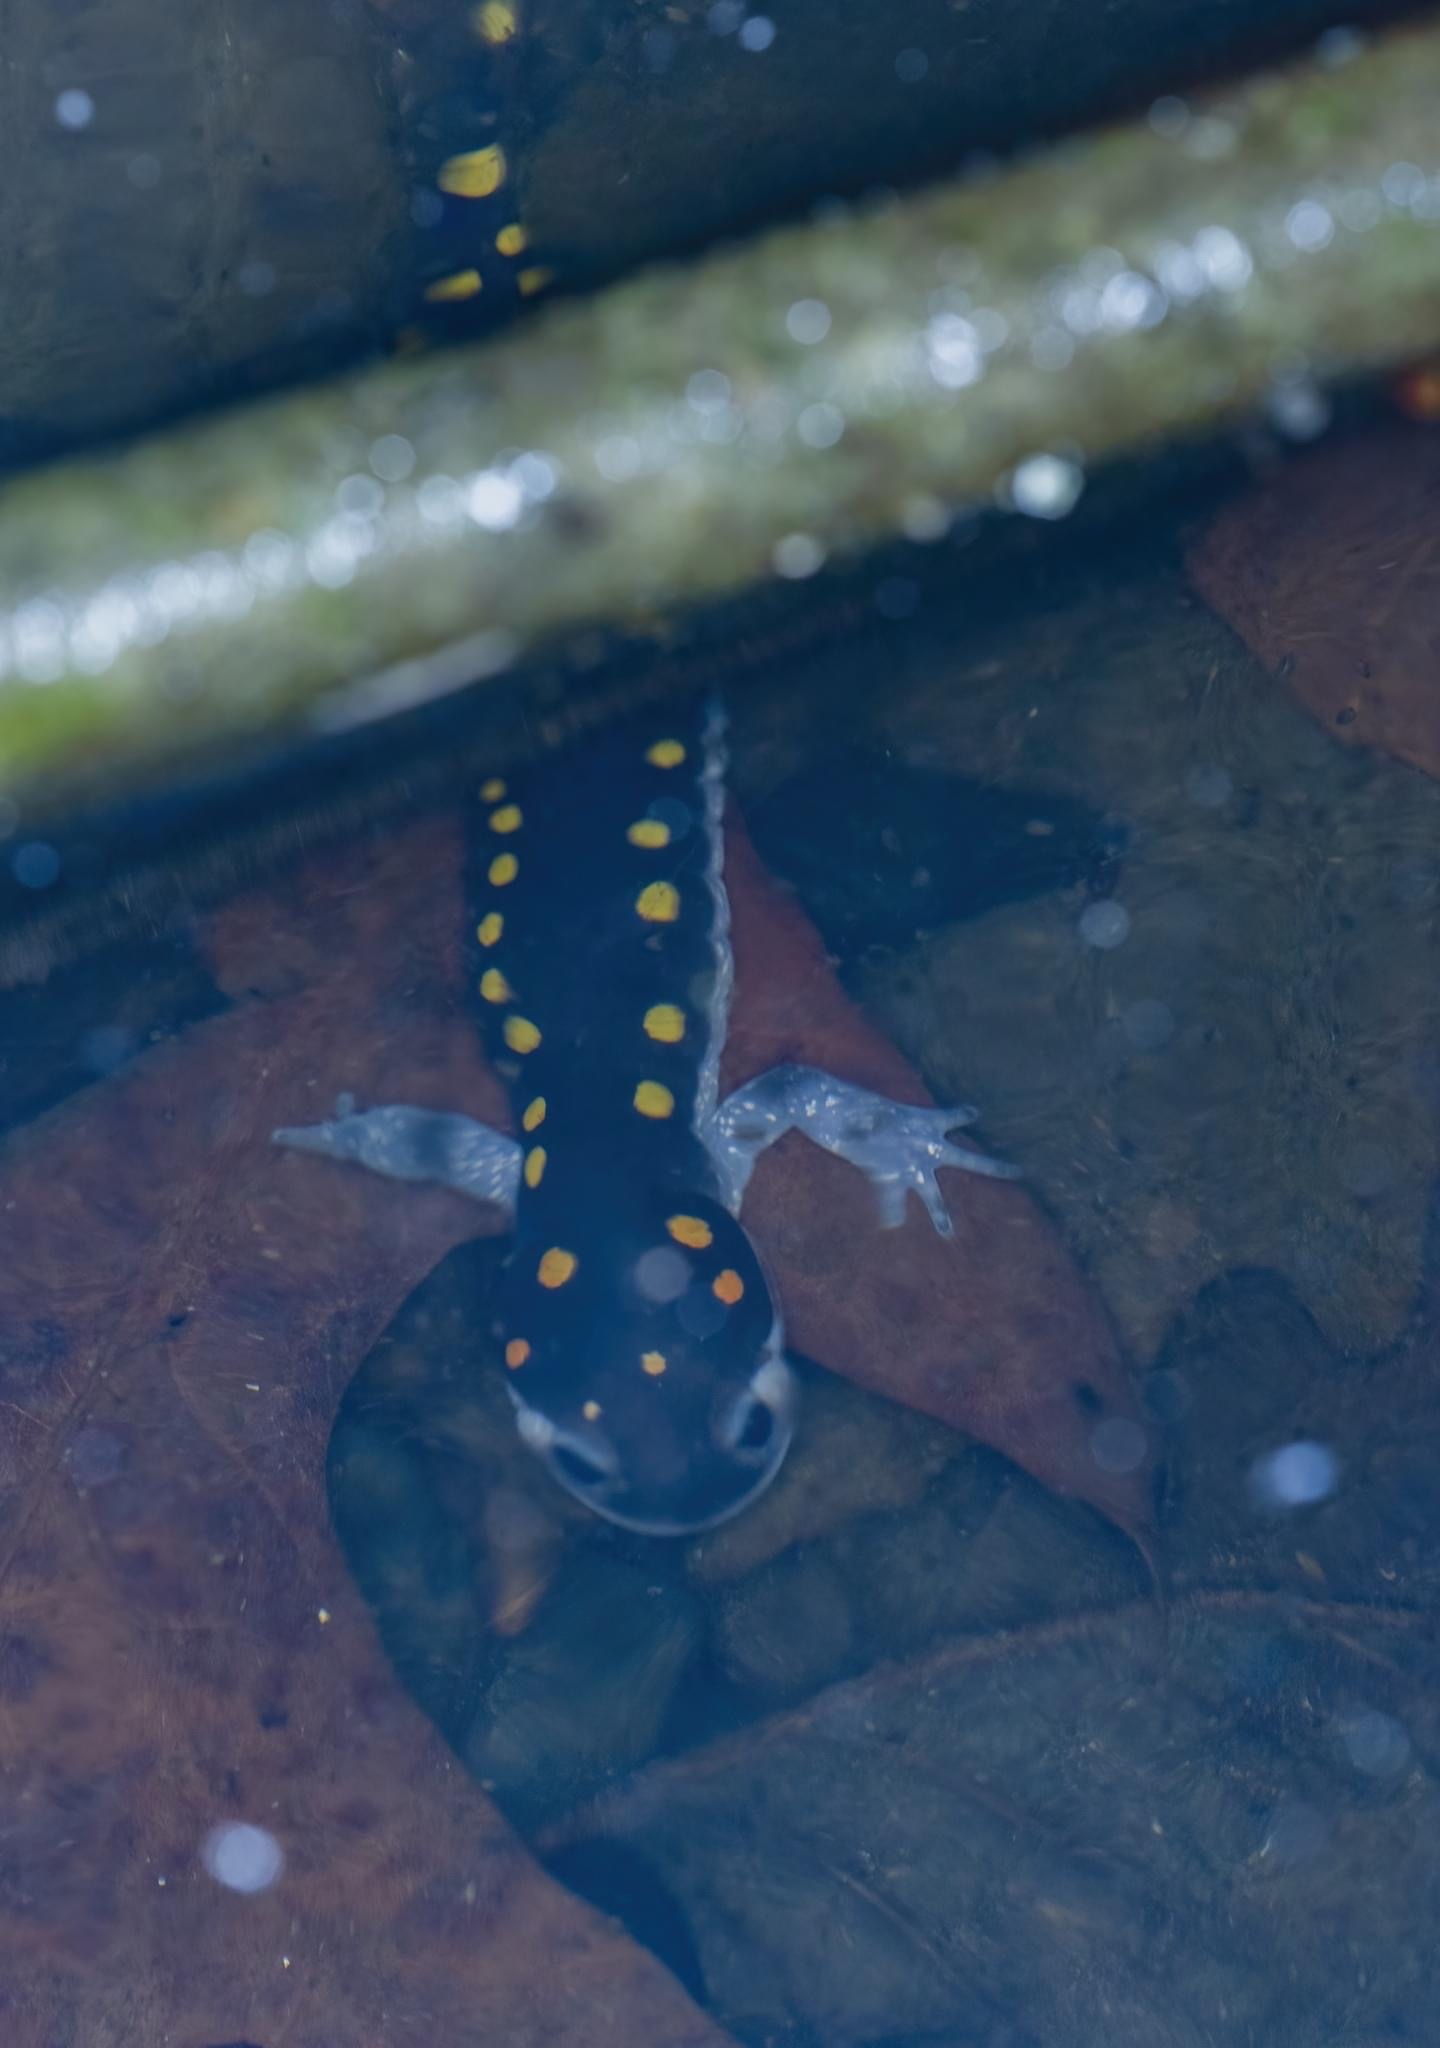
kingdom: Animalia
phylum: Chordata
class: Amphibia
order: Caudata
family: Ambystomatidae
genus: Ambystoma
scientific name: Ambystoma maculatum
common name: Spotted salamander
